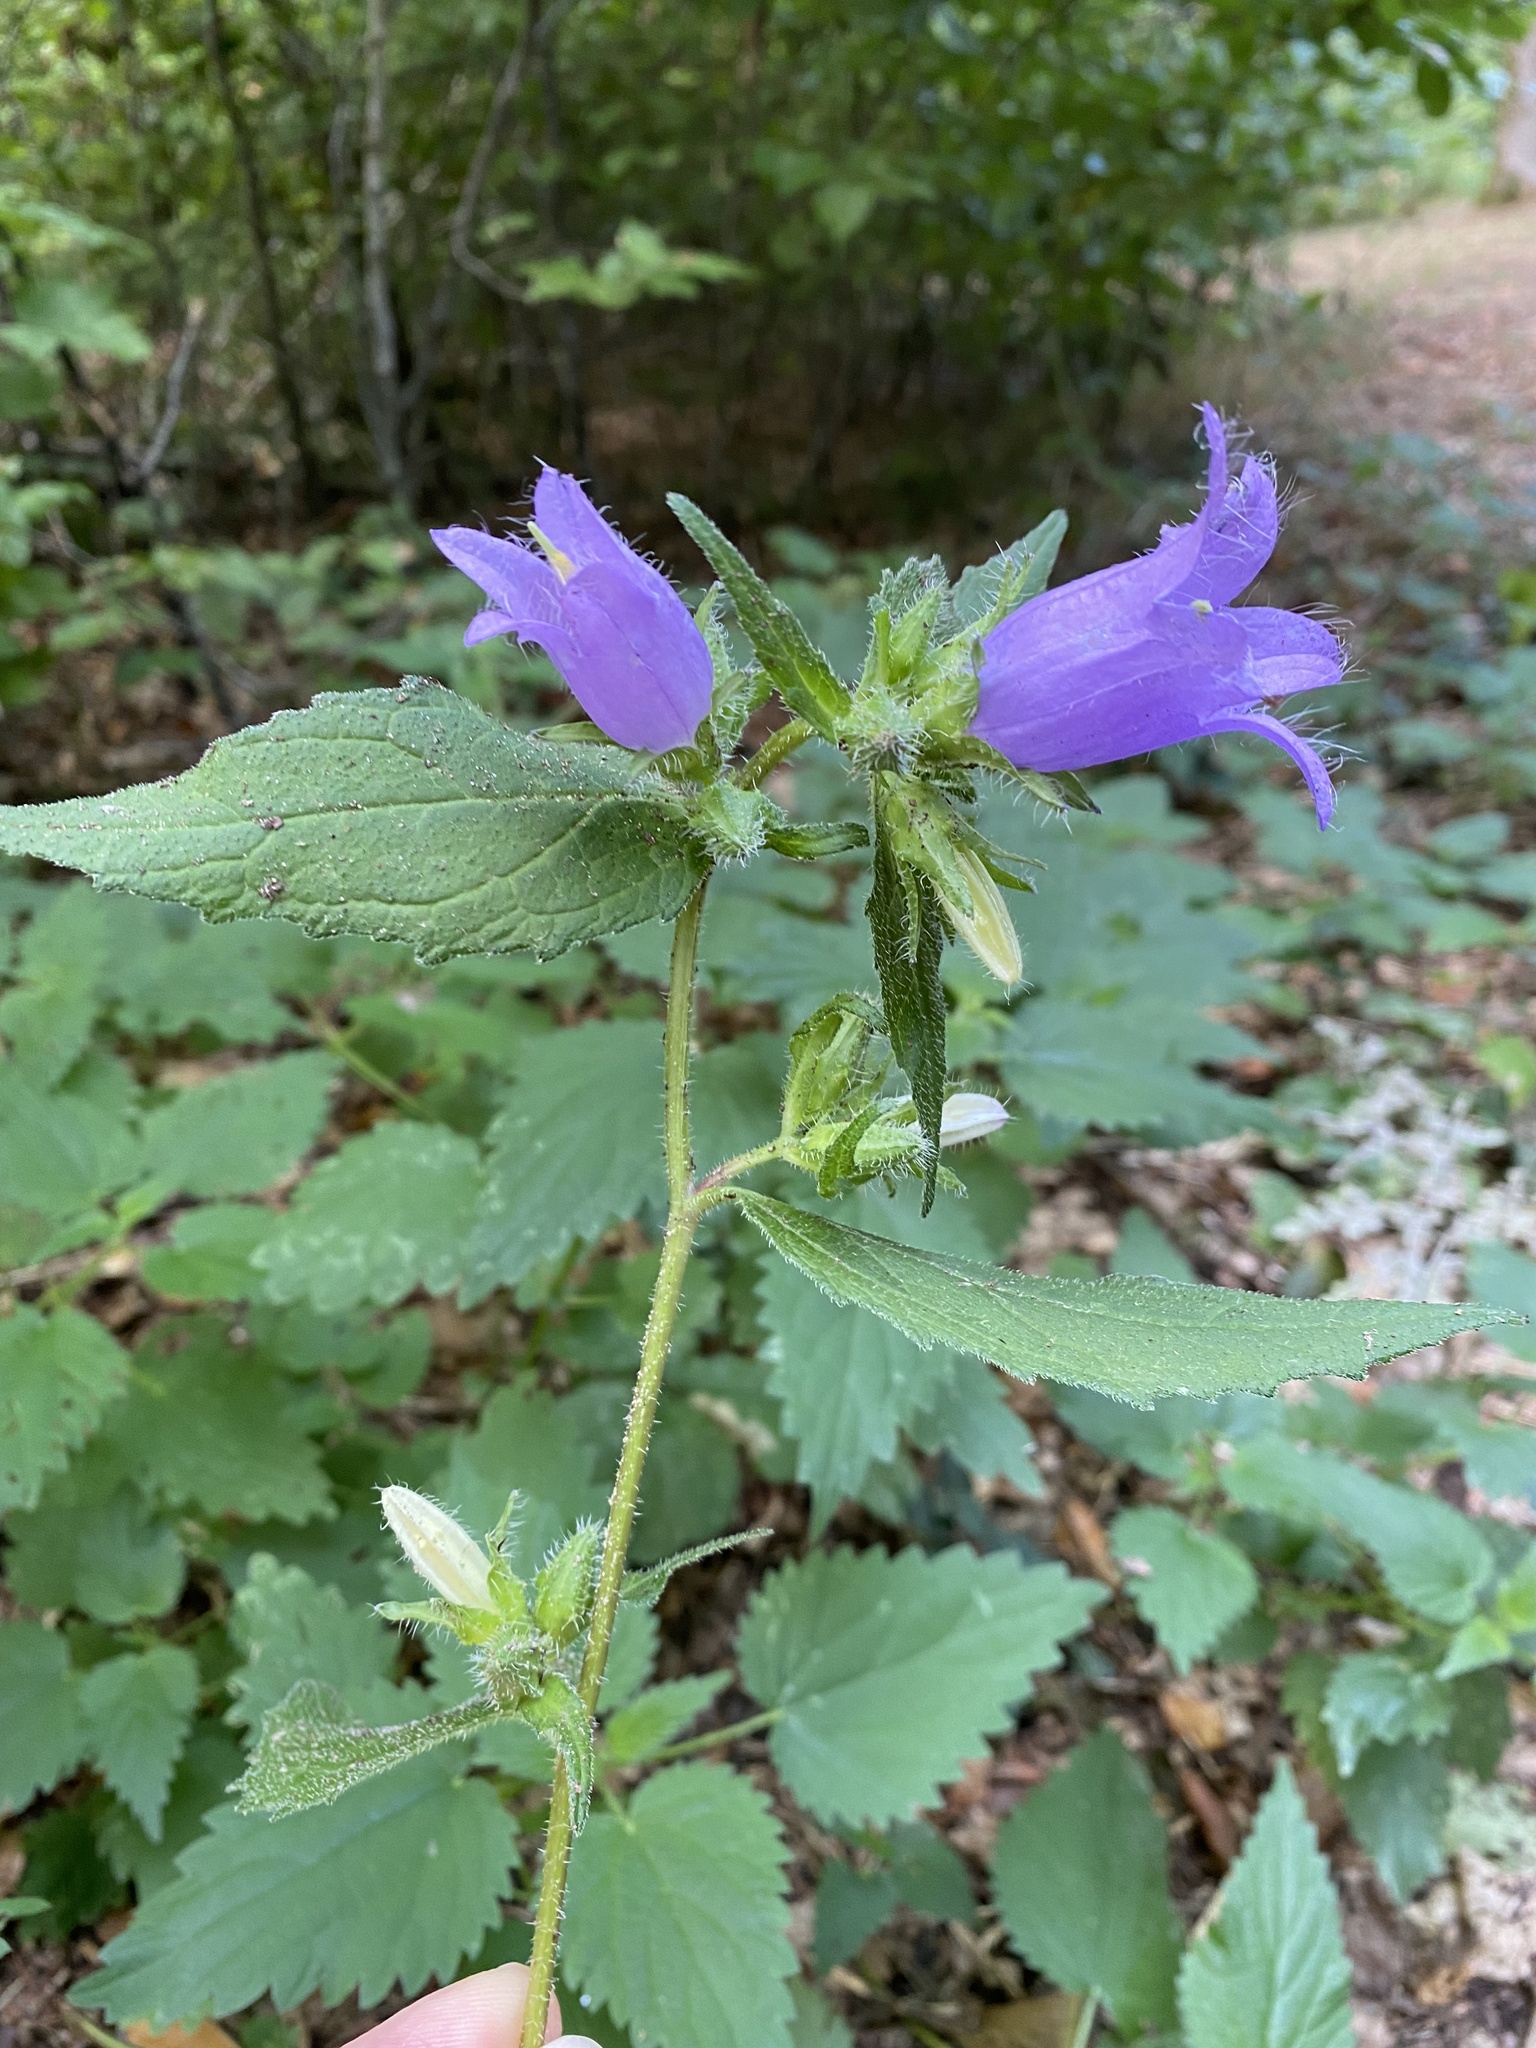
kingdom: Plantae
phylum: Tracheophyta
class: Magnoliopsida
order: Asterales
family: Campanulaceae
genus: Campanula
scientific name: Campanula trachelium
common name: Nettle-leaved bellflower
